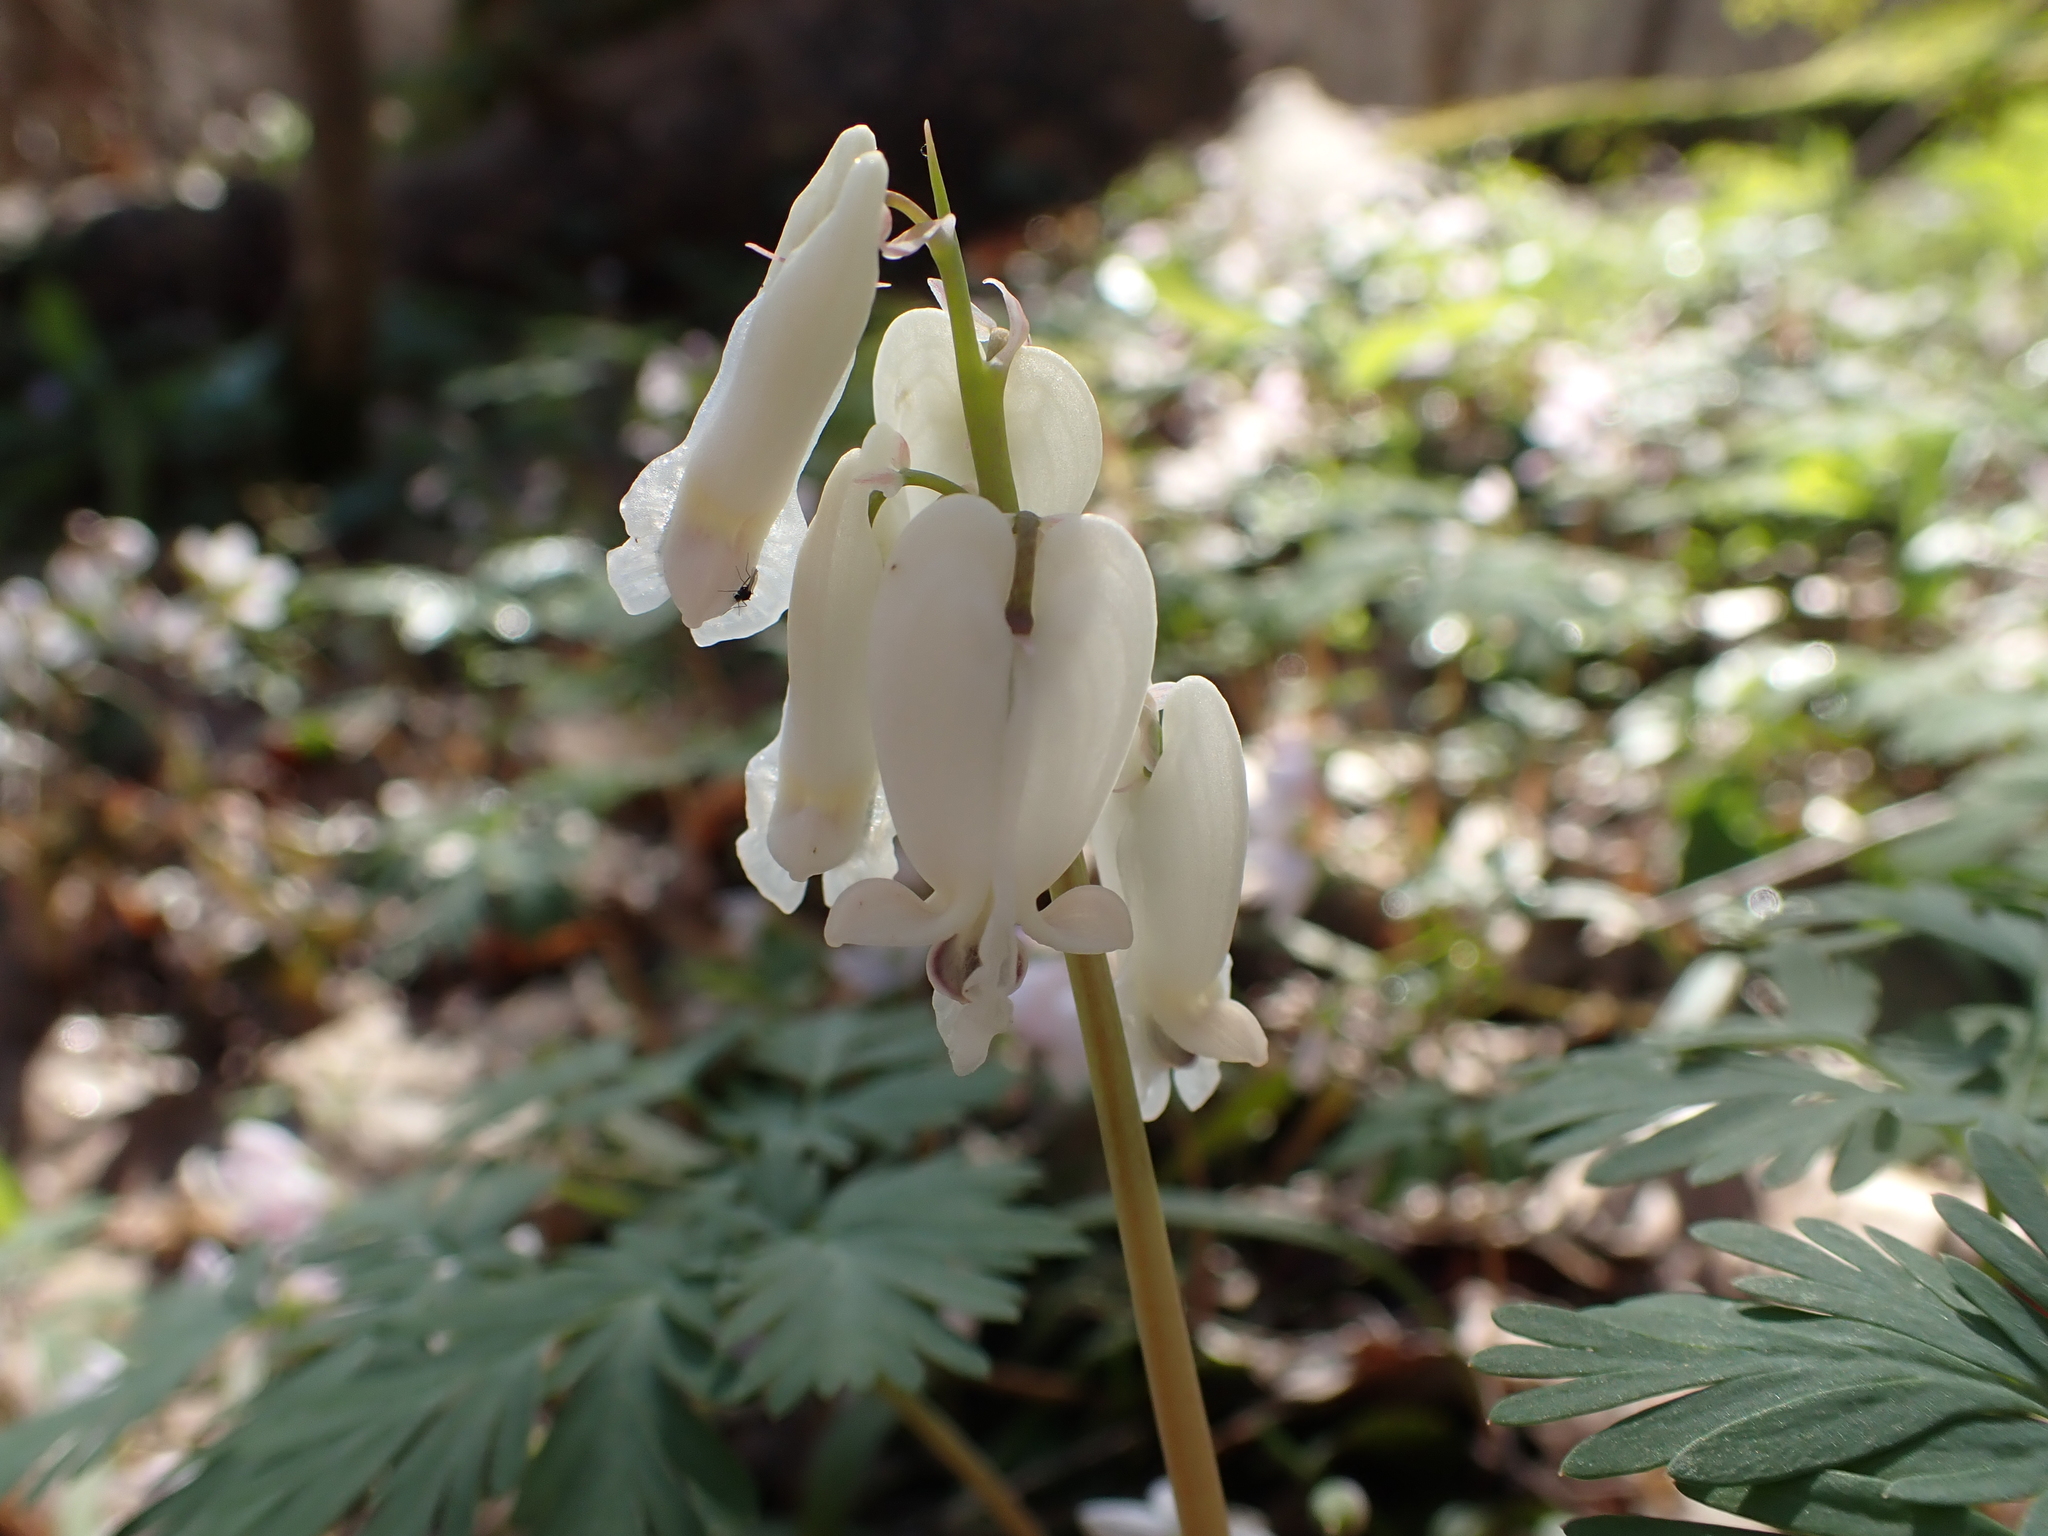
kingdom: Plantae
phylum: Tracheophyta
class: Magnoliopsida
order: Ranunculales
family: Papaveraceae
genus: Dicentra
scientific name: Dicentra canadensis
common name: Squirrel-corn
